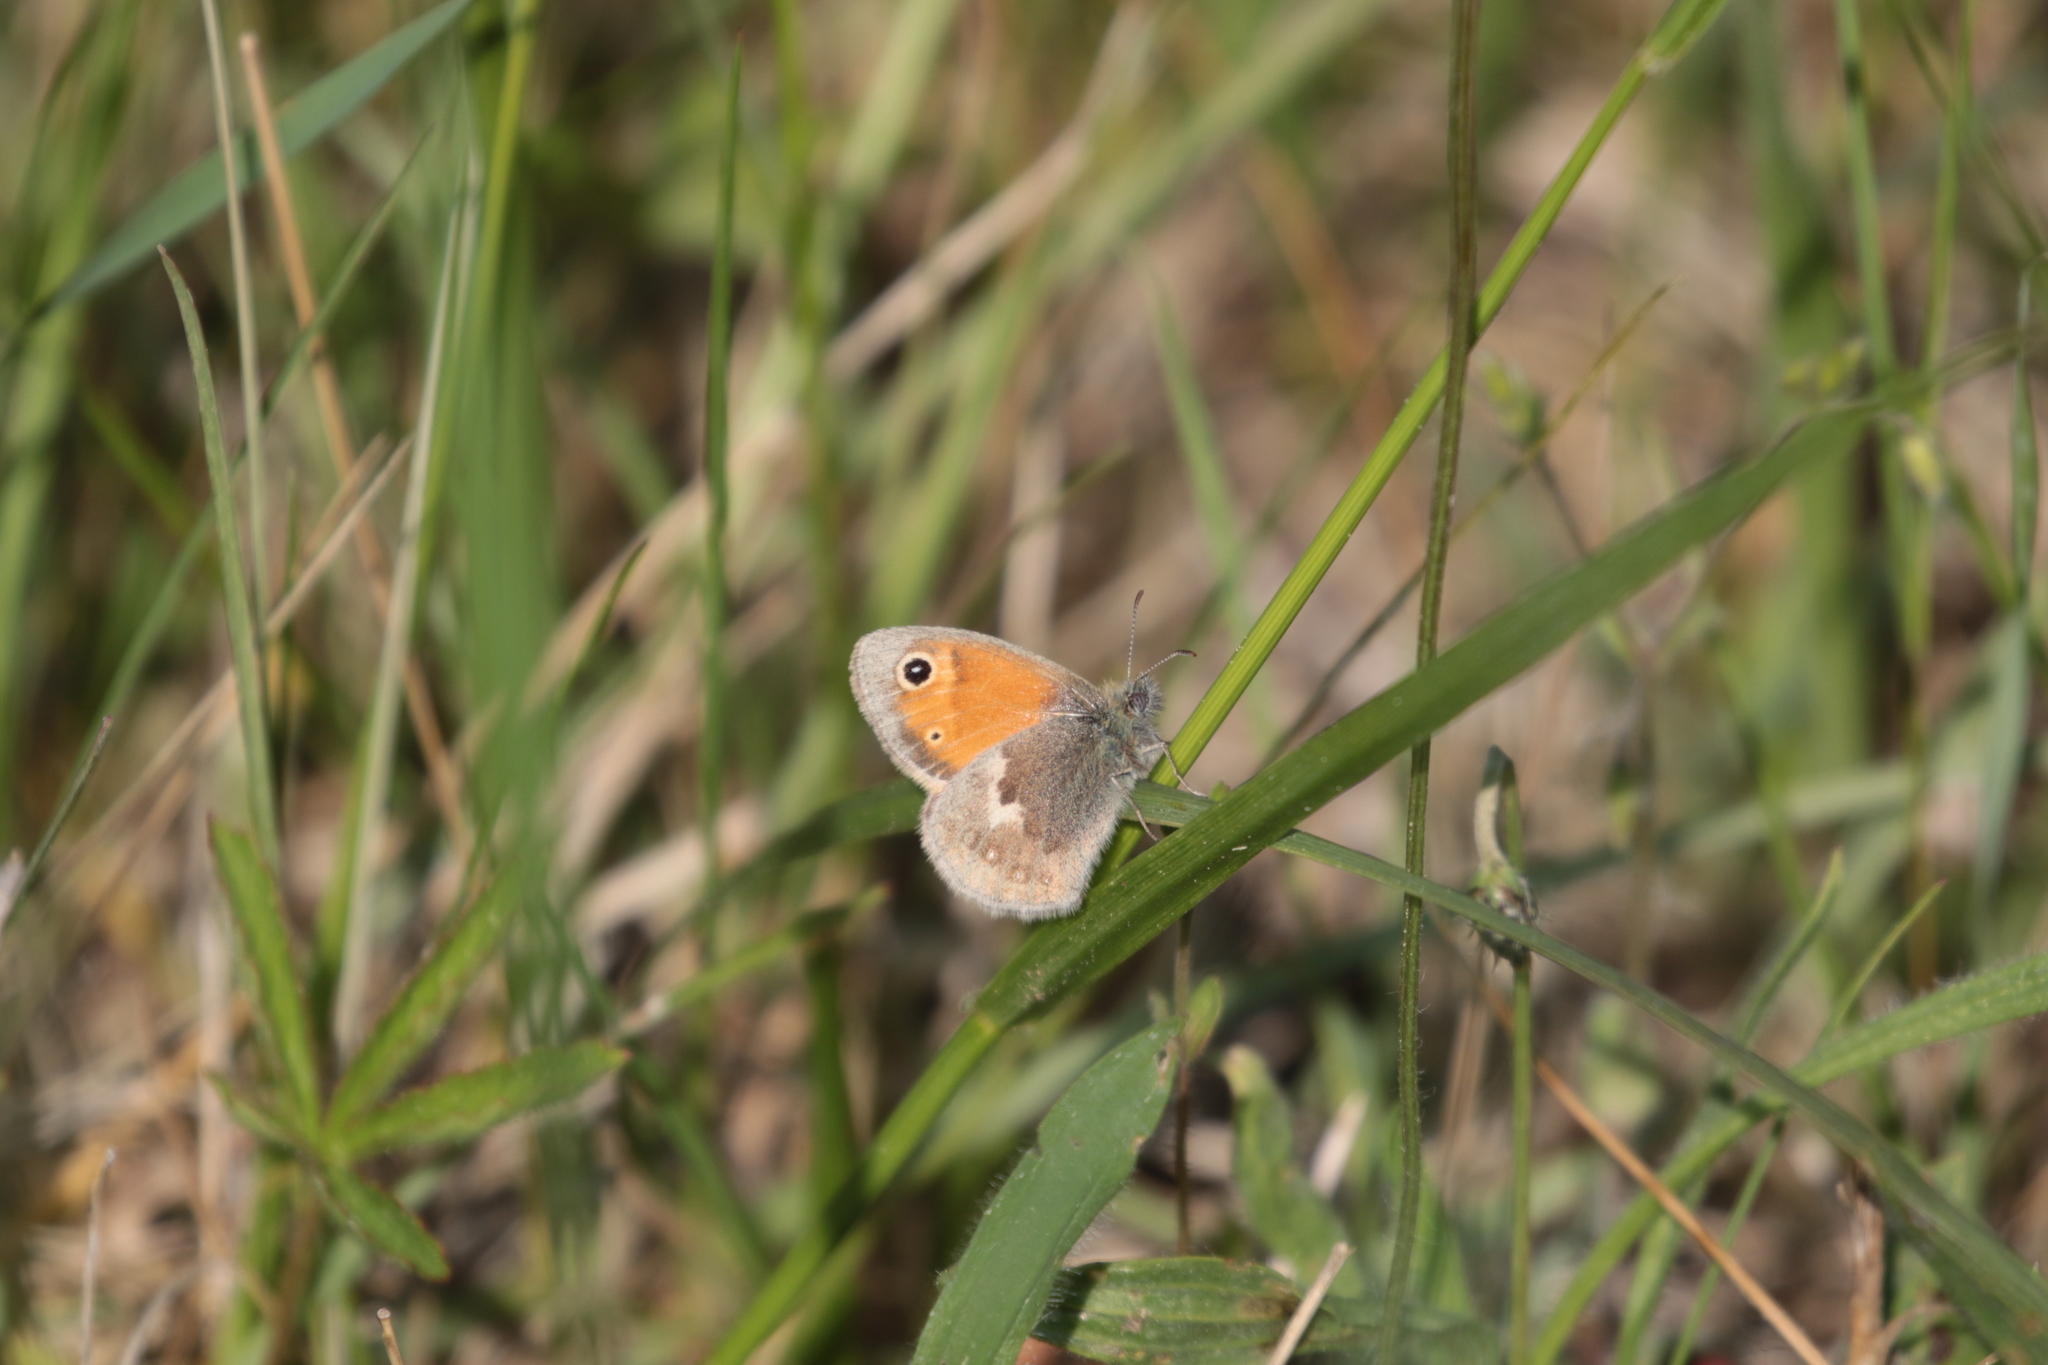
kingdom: Animalia
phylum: Arthropoda
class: Insecta
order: Lepidoptera
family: Nymphalidae
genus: Coenonympha
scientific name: Coenonympha pamphilus
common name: Small heath
